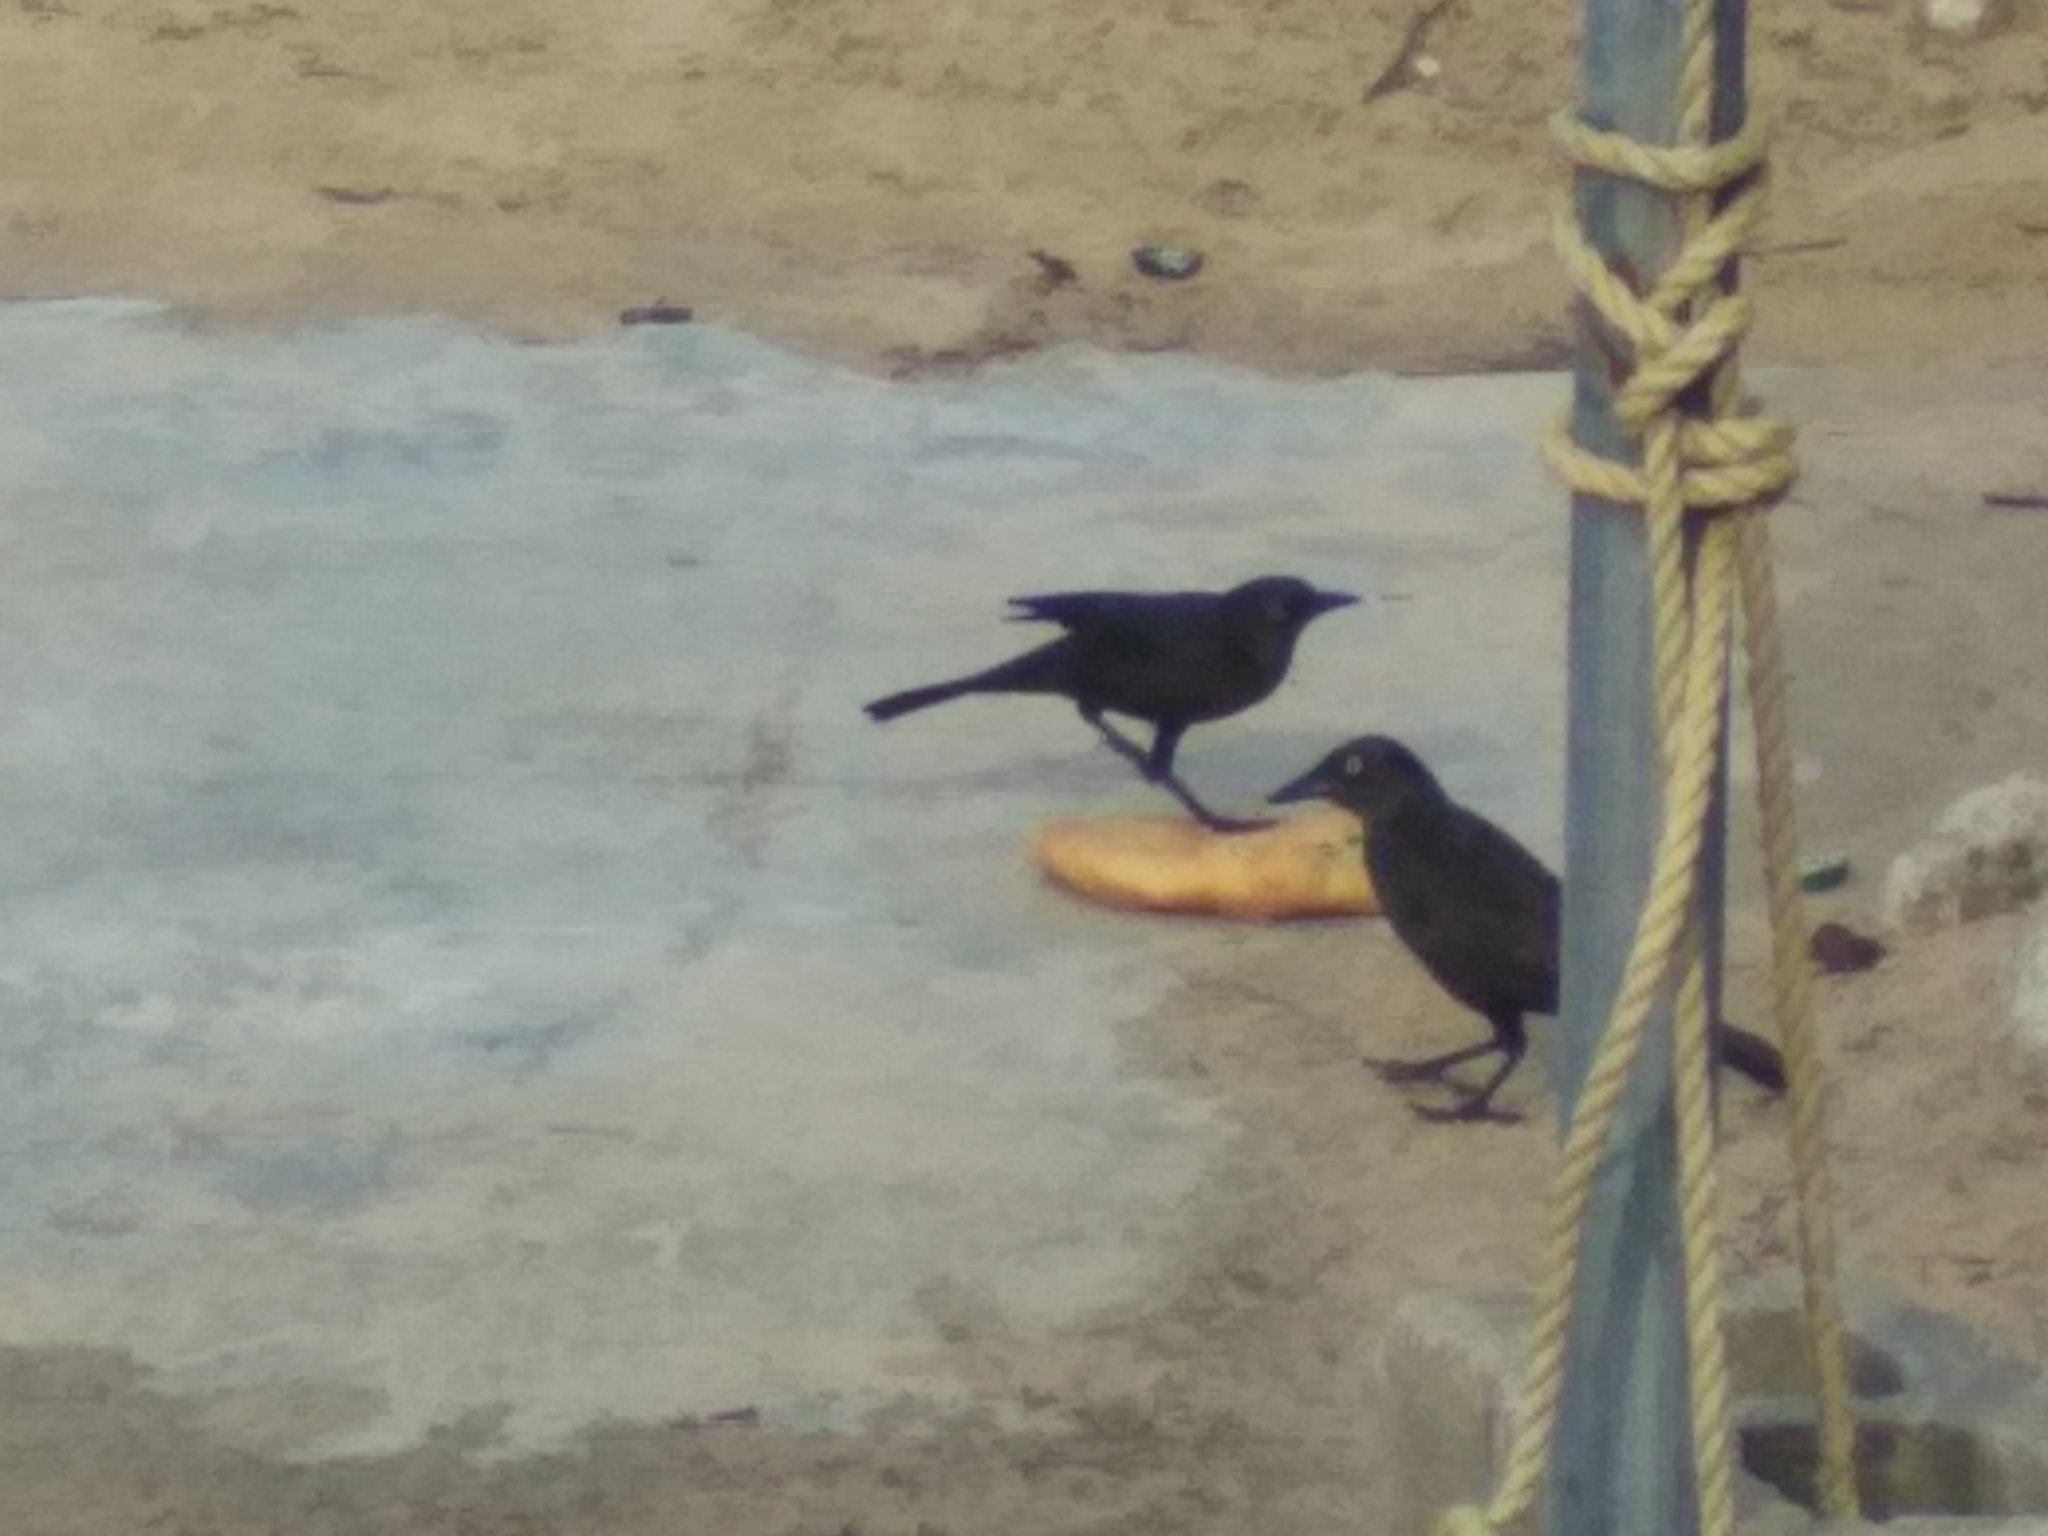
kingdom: Animalia
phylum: Chordata
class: Aves
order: Passeriformes
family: Icteridae
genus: Quiscalus
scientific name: Quiscalus lugubris
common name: Carib grackle
